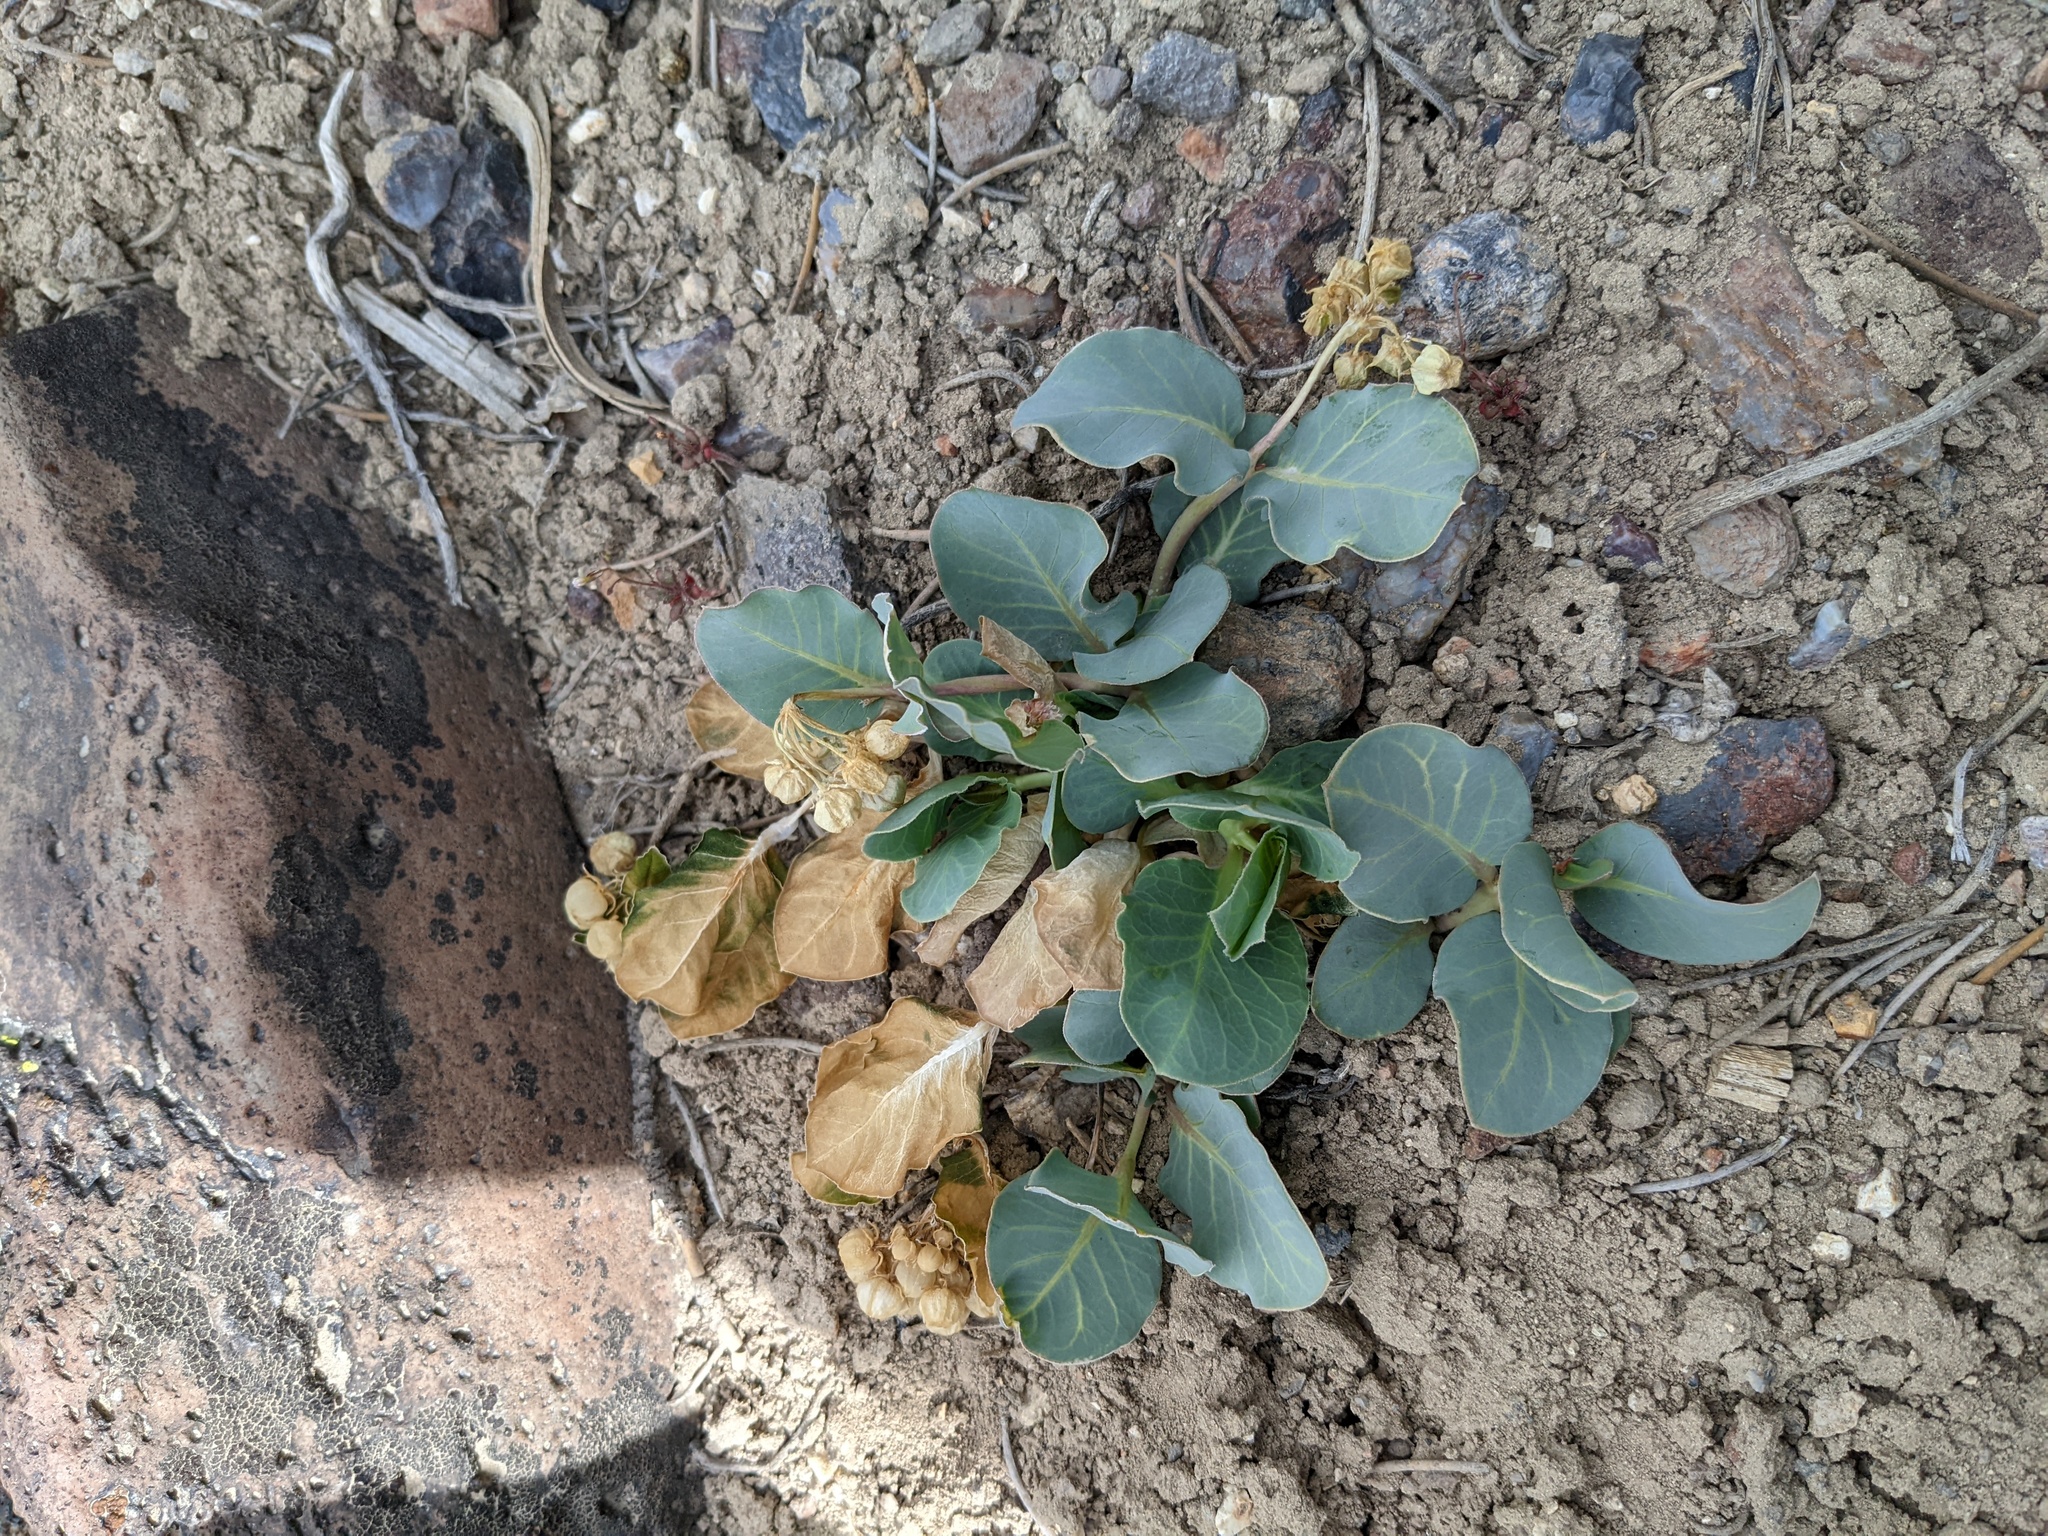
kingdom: Plantae
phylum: Tracheophyta
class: Magnoliopsida
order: Gentianales
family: Apocynaceae
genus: Asclepias
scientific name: Asclepias cryptoceras
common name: Humboldt mountains milkweed
